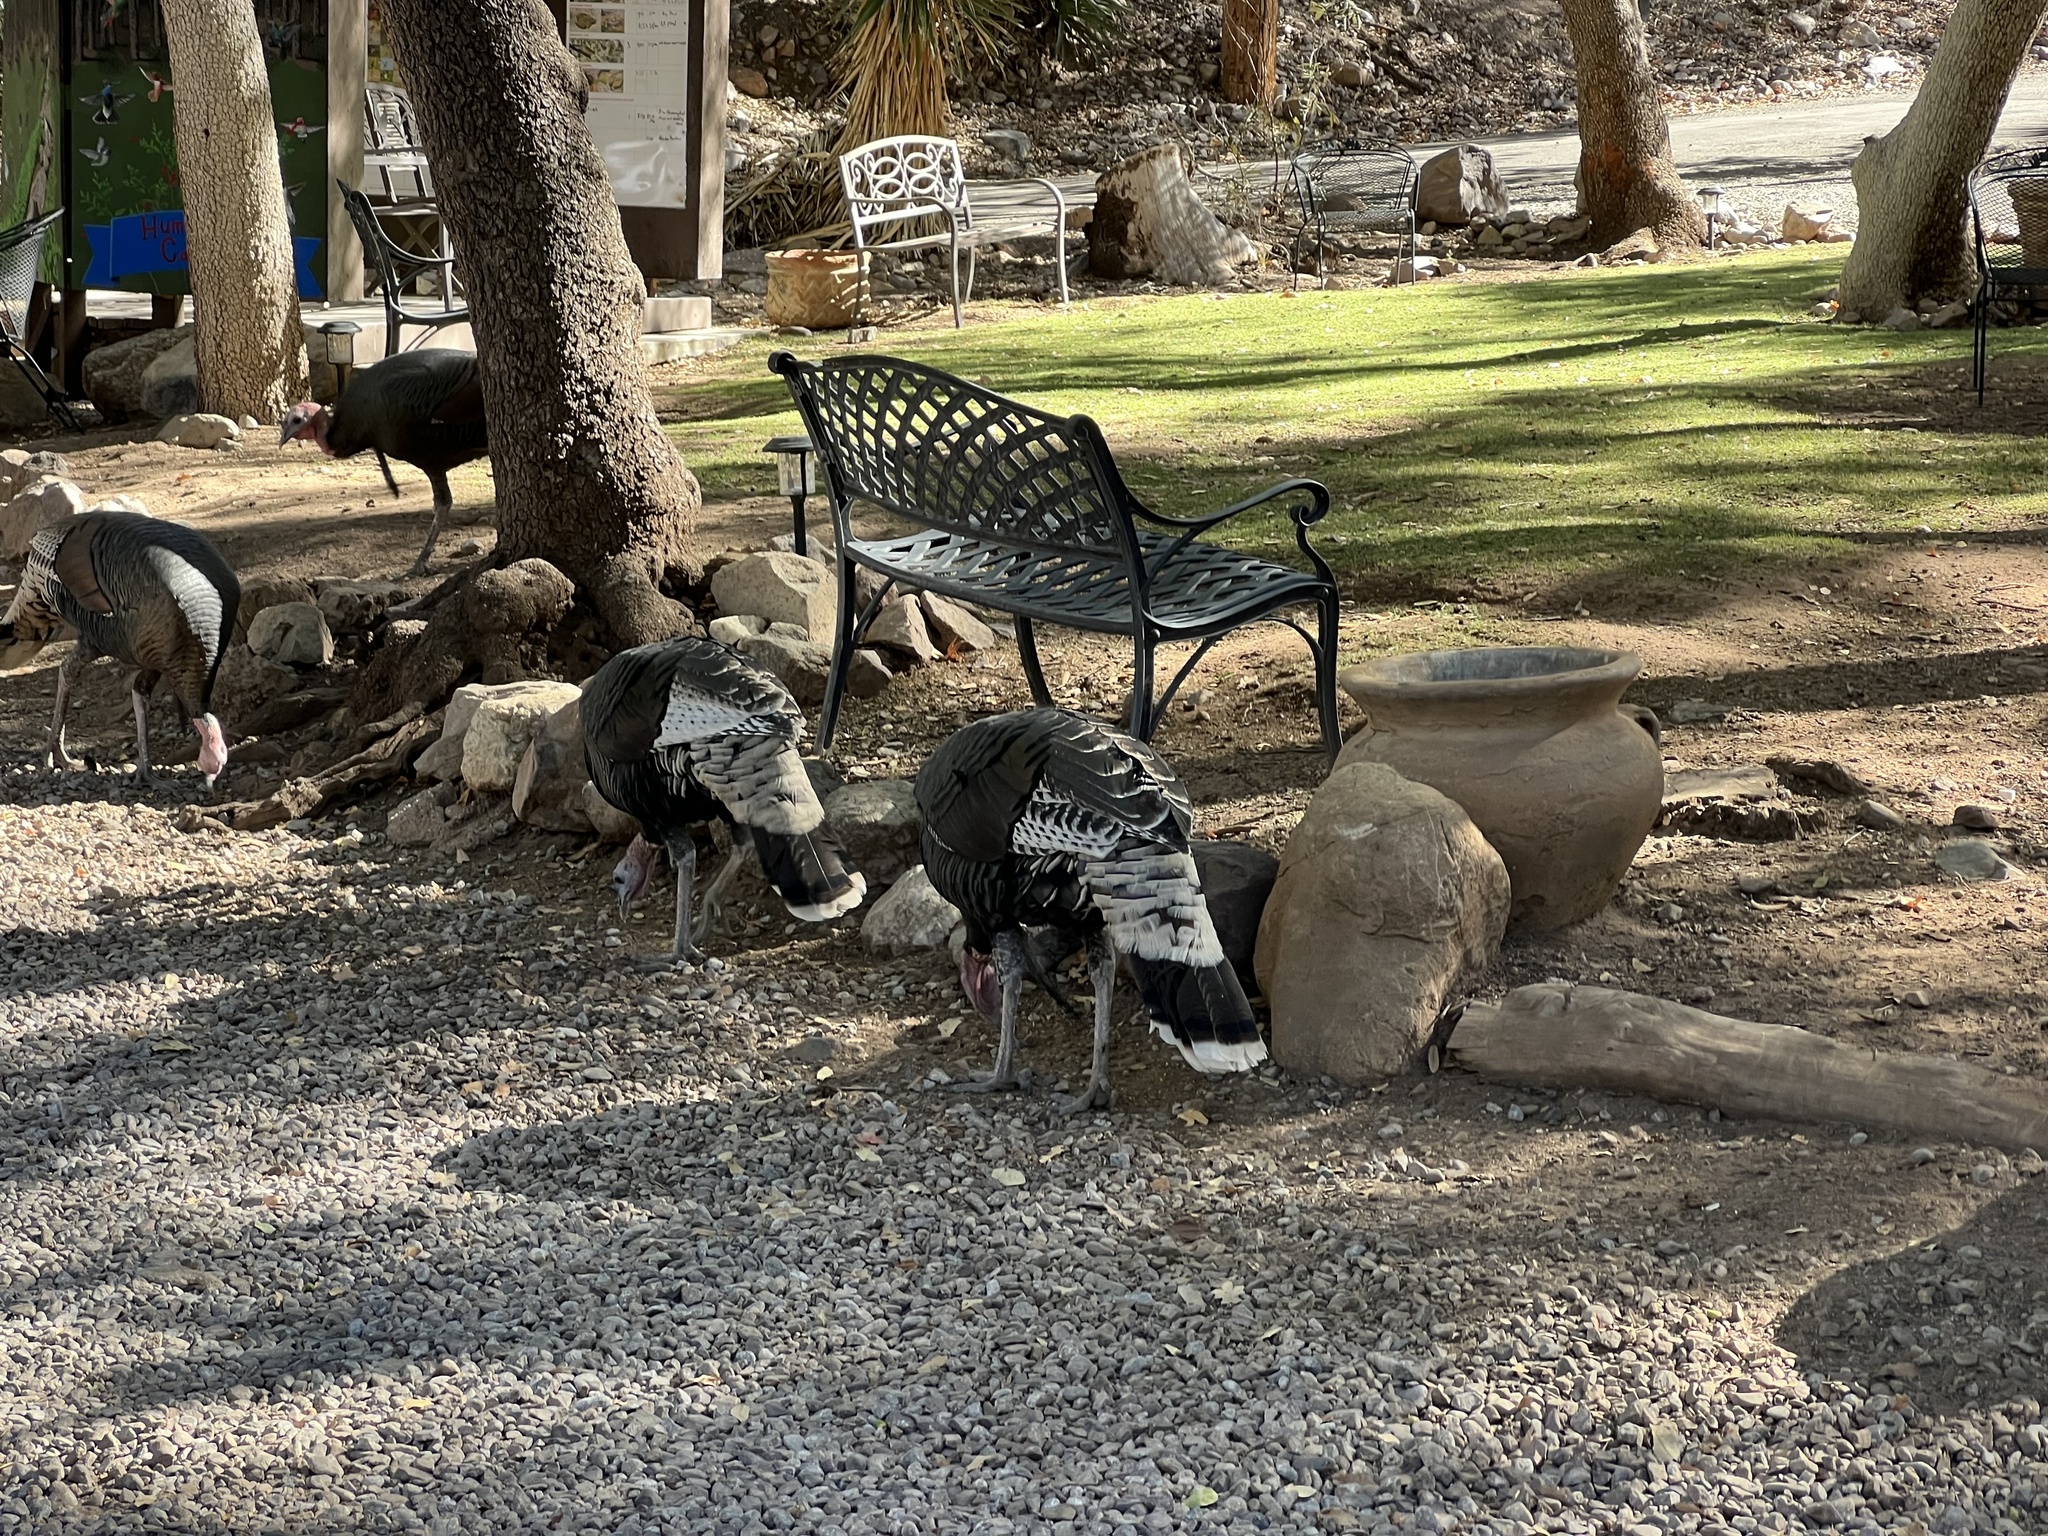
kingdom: Animalia
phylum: Chordata
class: Aves
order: Galliformes
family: Phasianidae
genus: Meleagris
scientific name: Meleagris gallopavo
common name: Wild turkey
